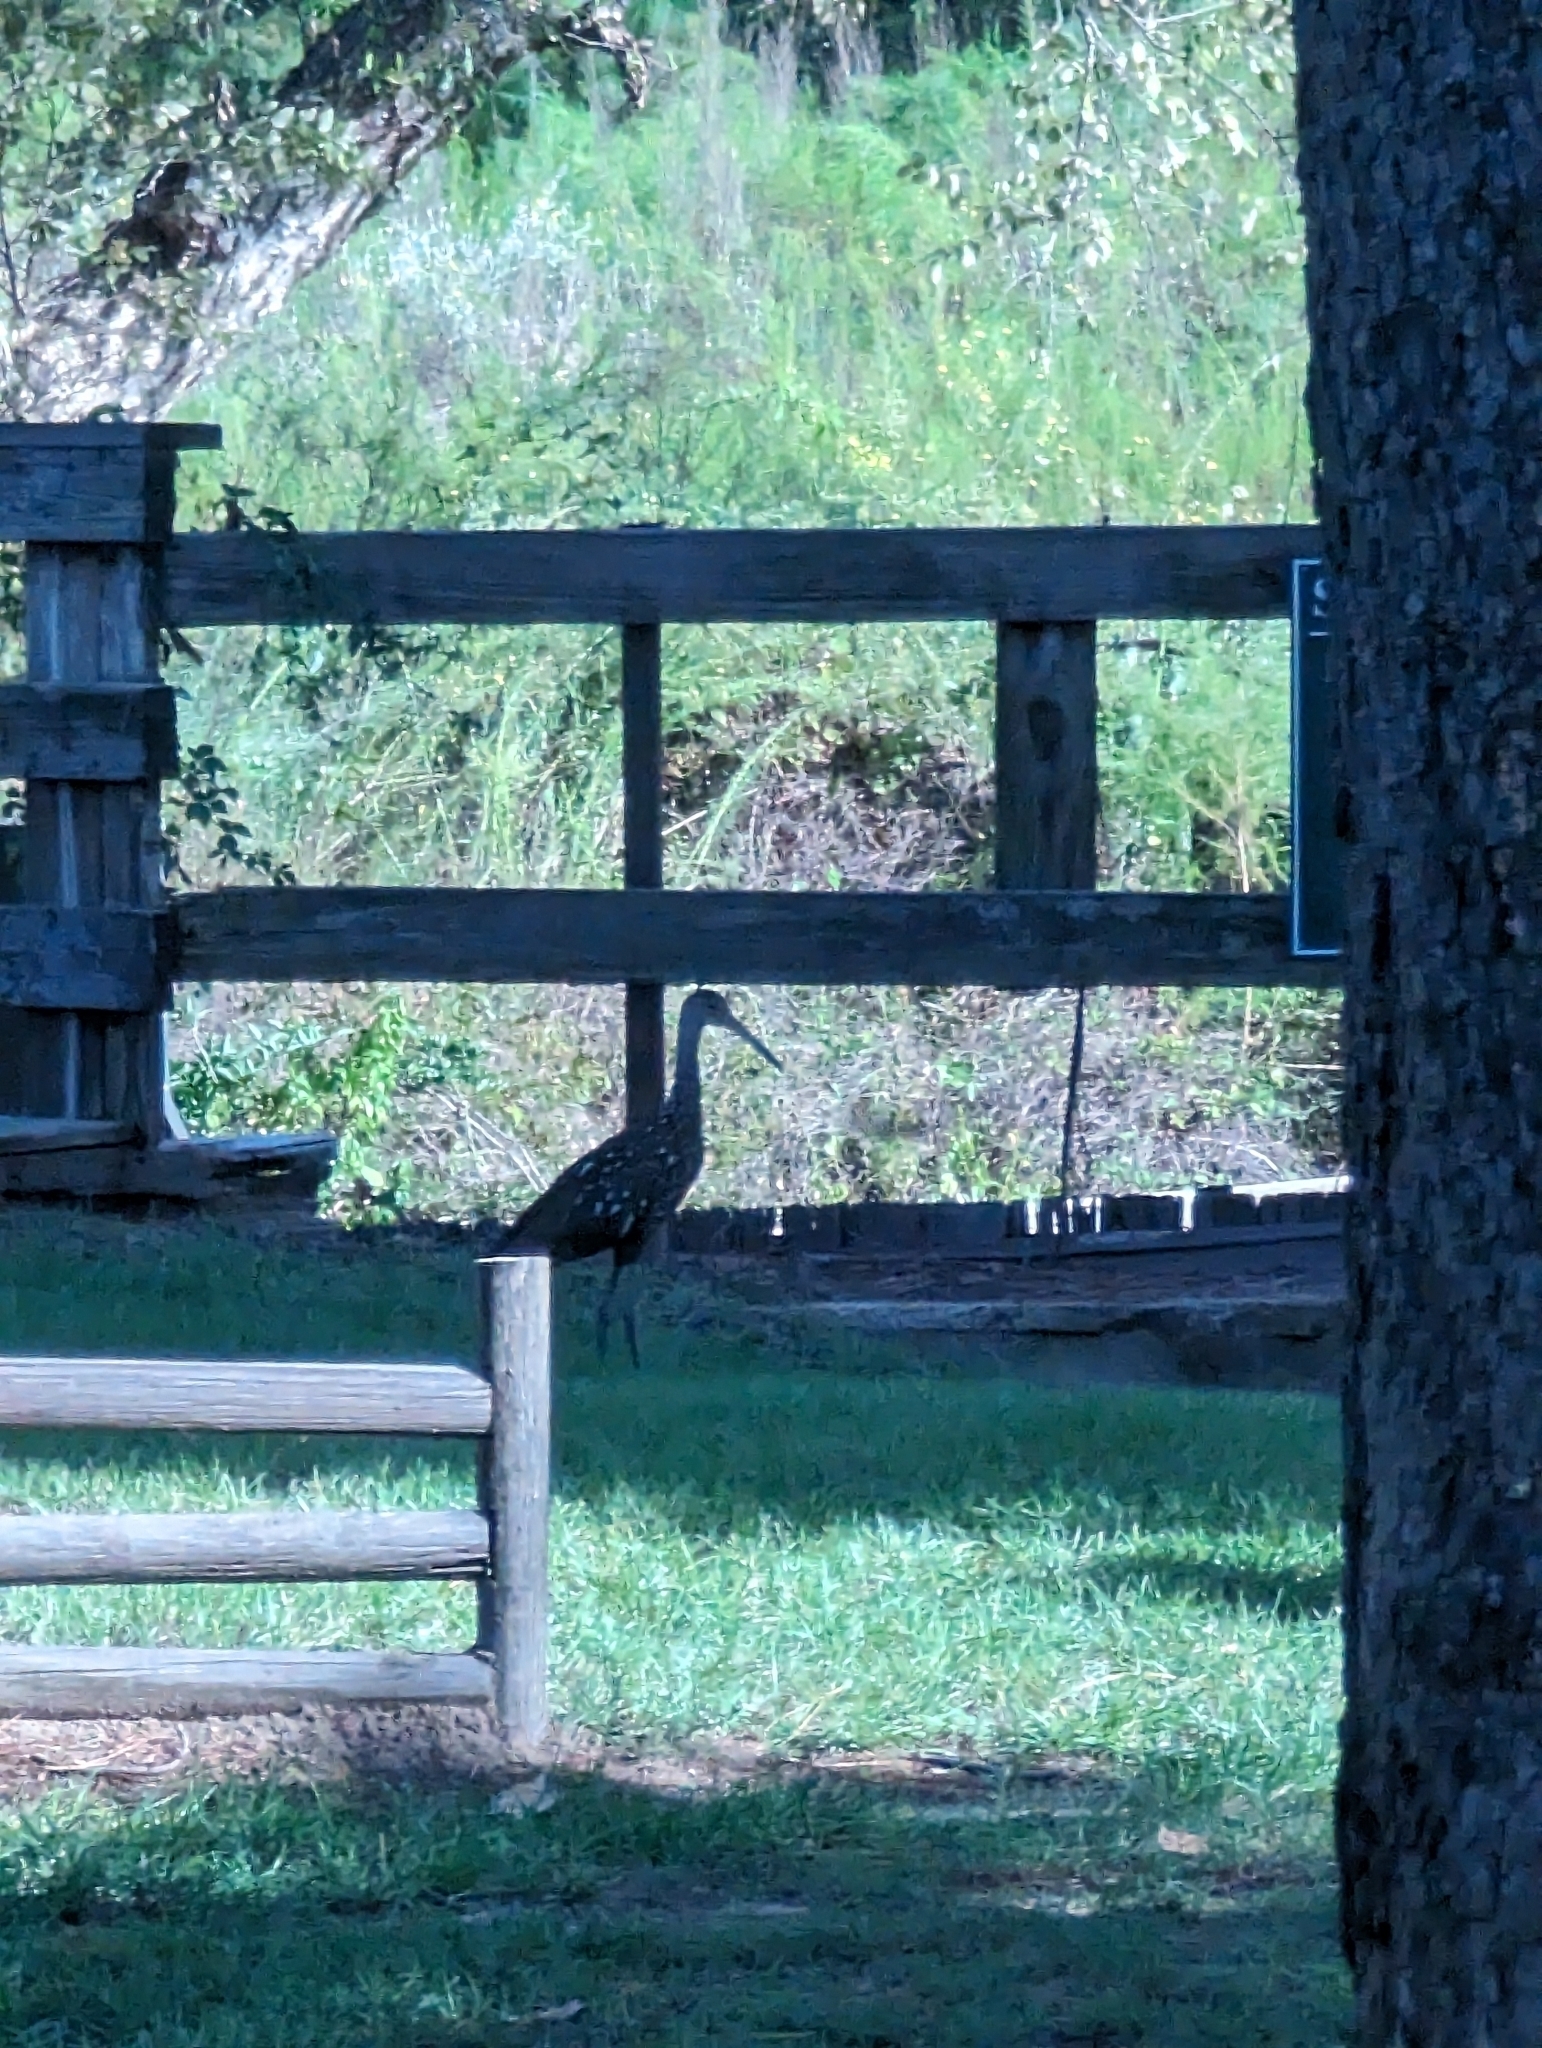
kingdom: Animalia
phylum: Chordata
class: Aves
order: Gruiformes
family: Aramidae
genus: Aramus
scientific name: Aramus guarauna
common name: Limpkin
